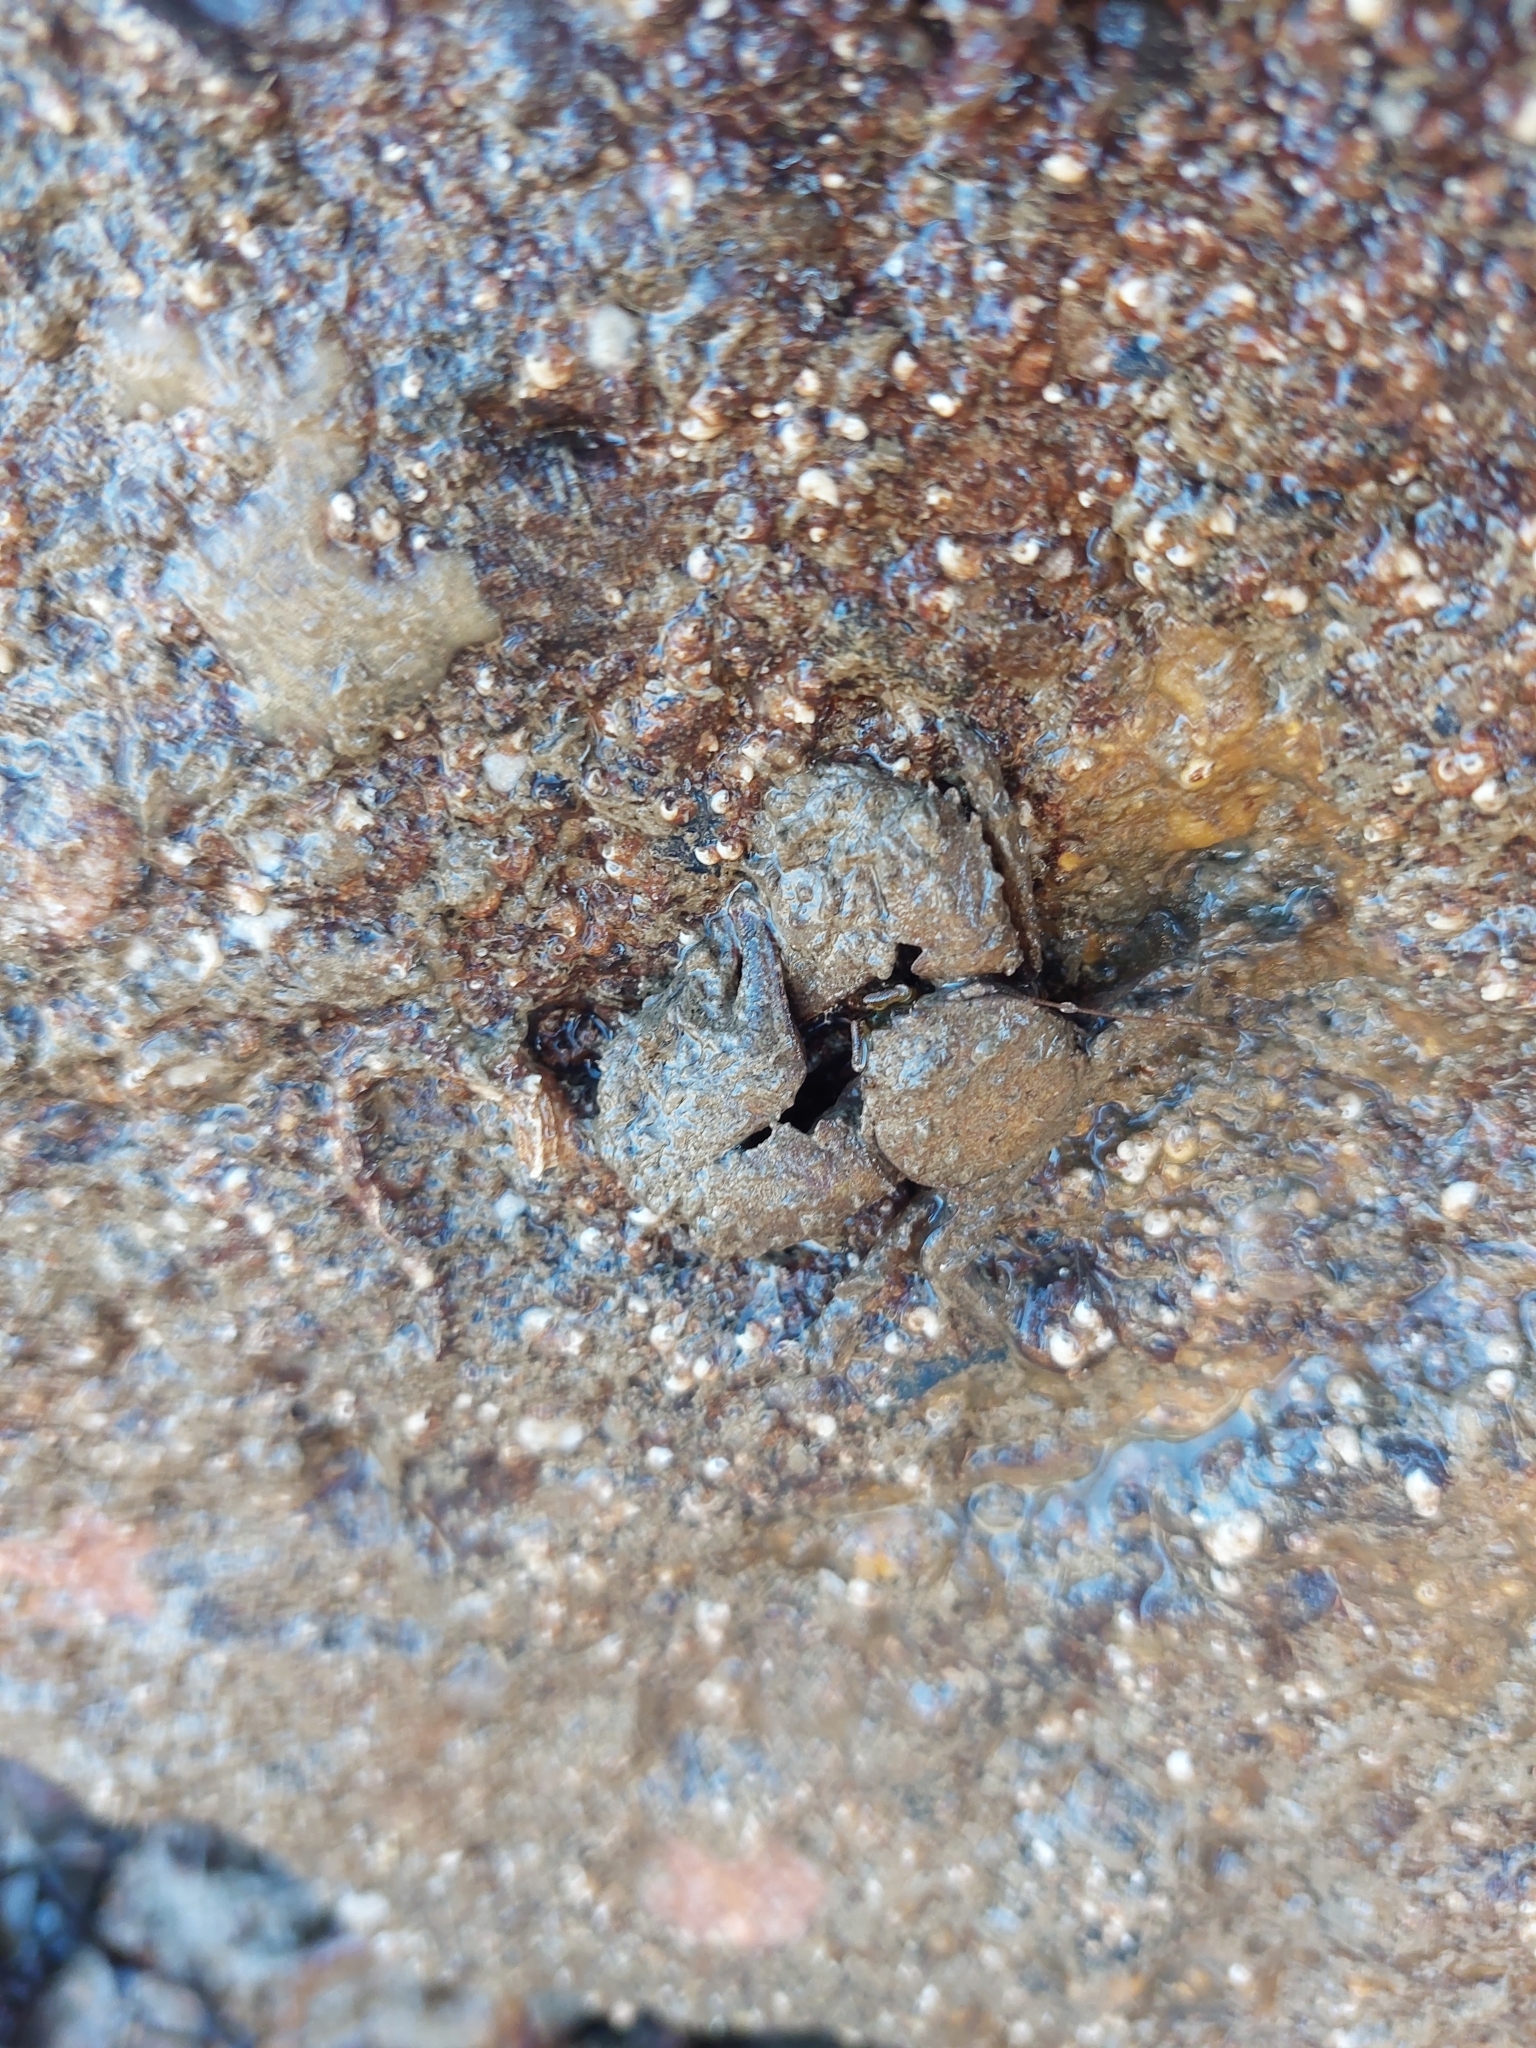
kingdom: Animalia
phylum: Arthropoda
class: Malacostraca
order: Decapoda
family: Porcellanidae
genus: Porcellana
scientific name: Porcellana platycheles
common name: Porcelain crab
